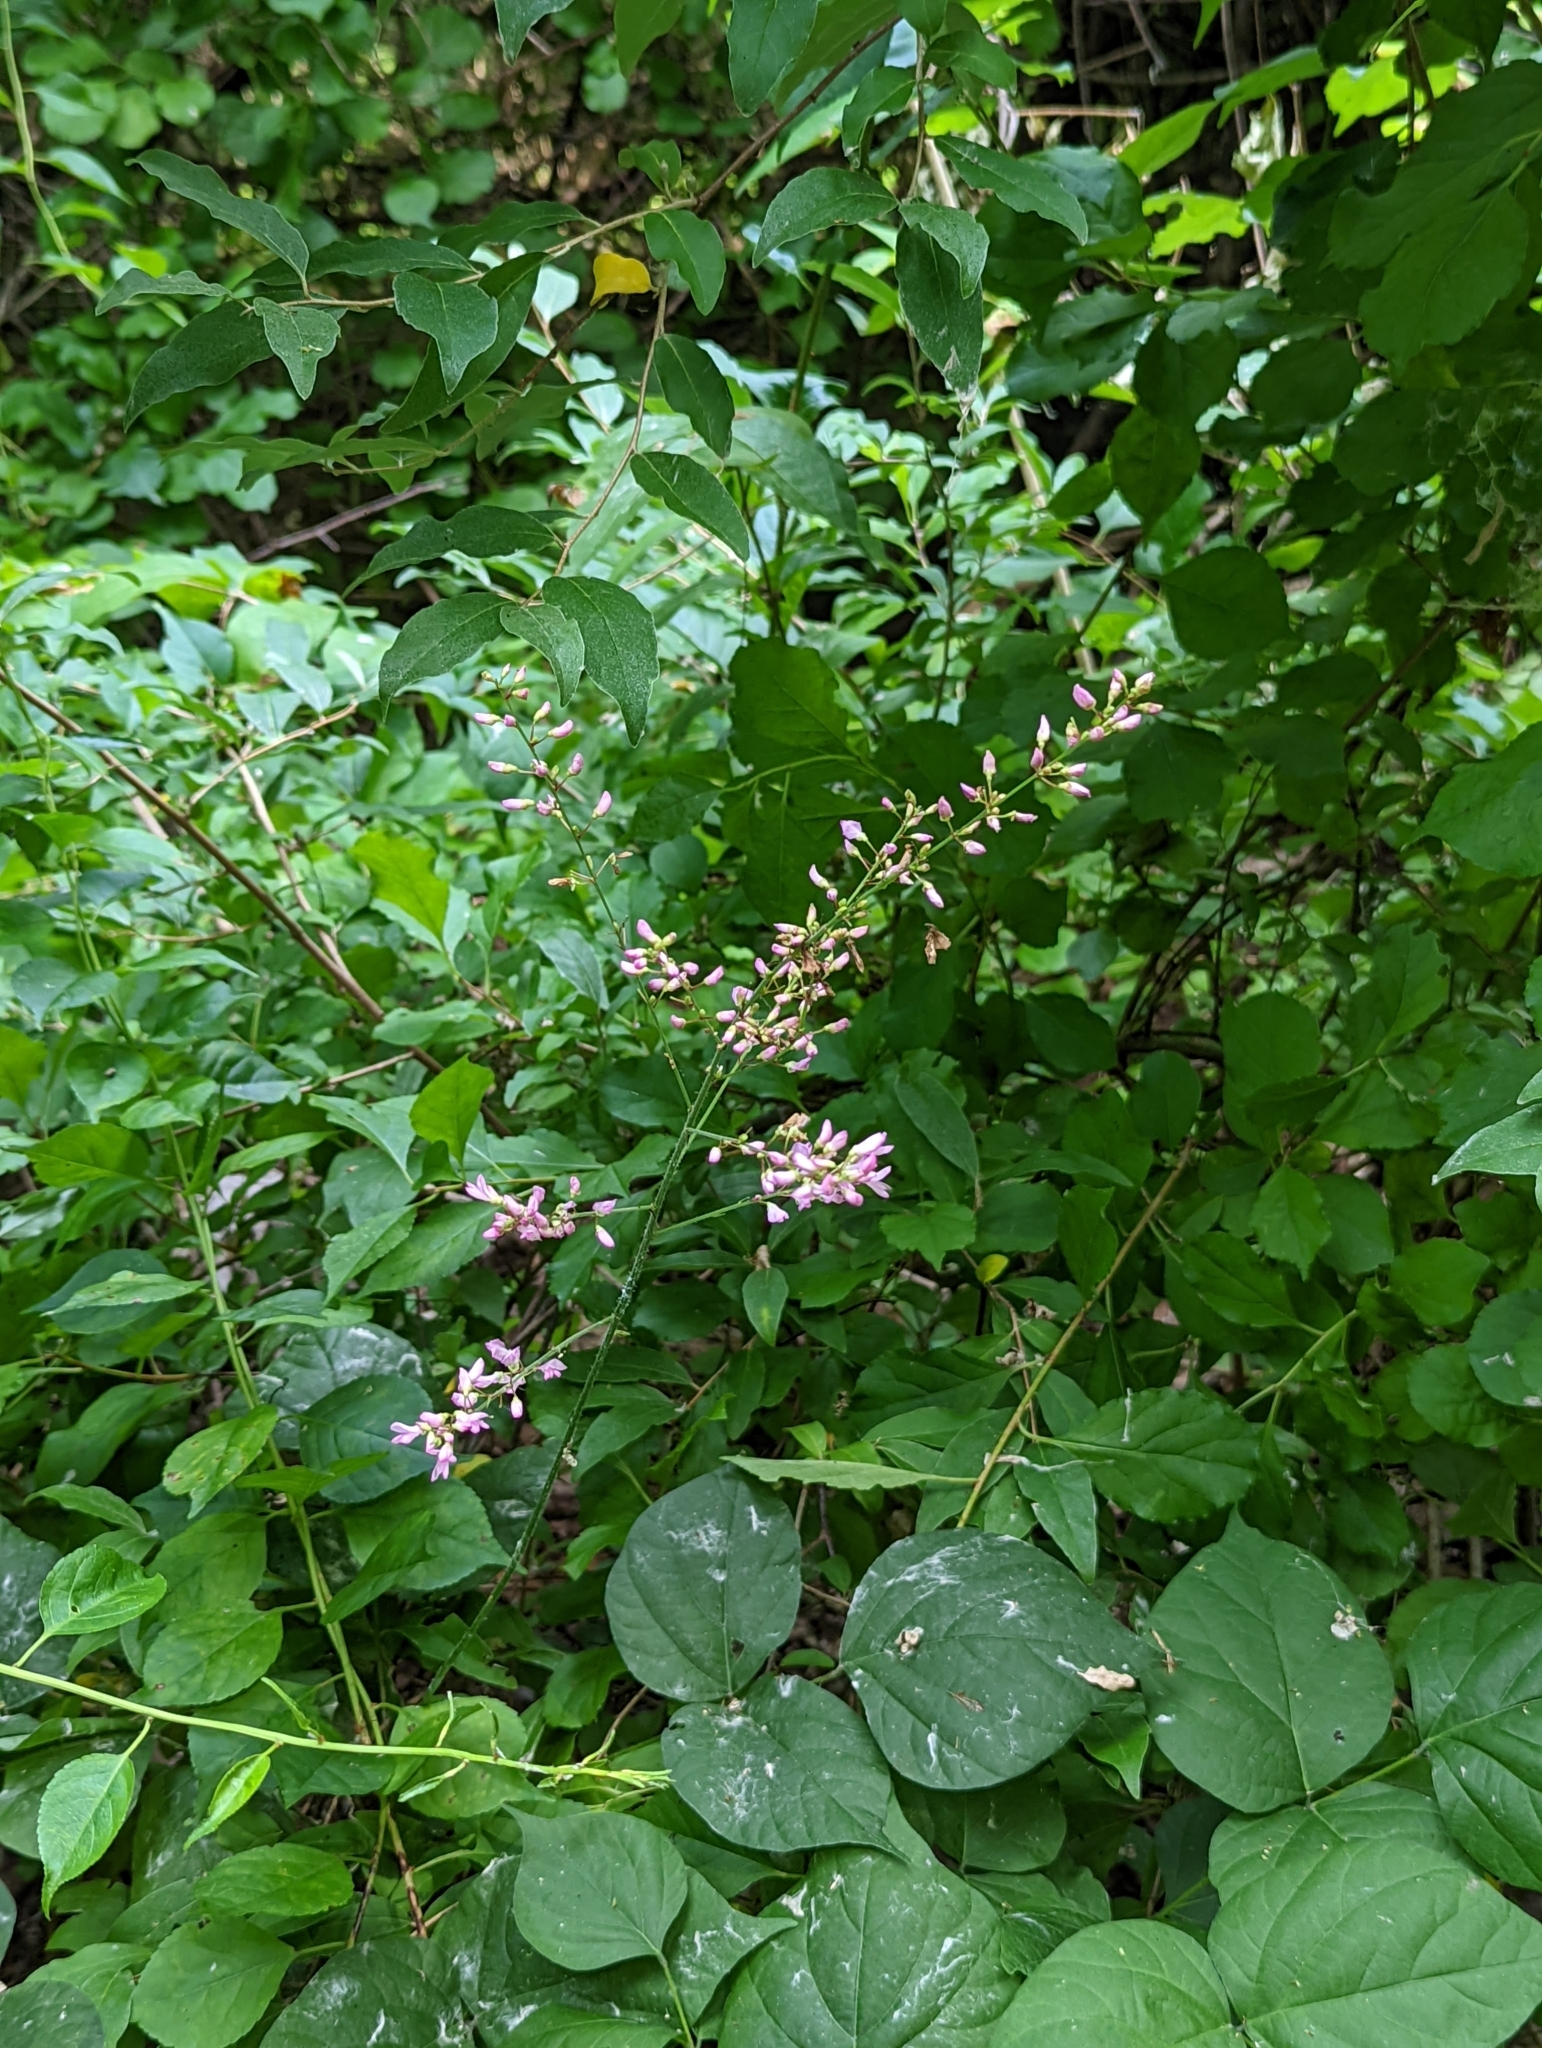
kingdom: Plantae
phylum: Tracheophyta
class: Magnoliopsida
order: Fabales
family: Fabaceae
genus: Hylodesmum
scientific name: Hylodesmum glutinosum
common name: Clustered-leaved tick-trefoil
